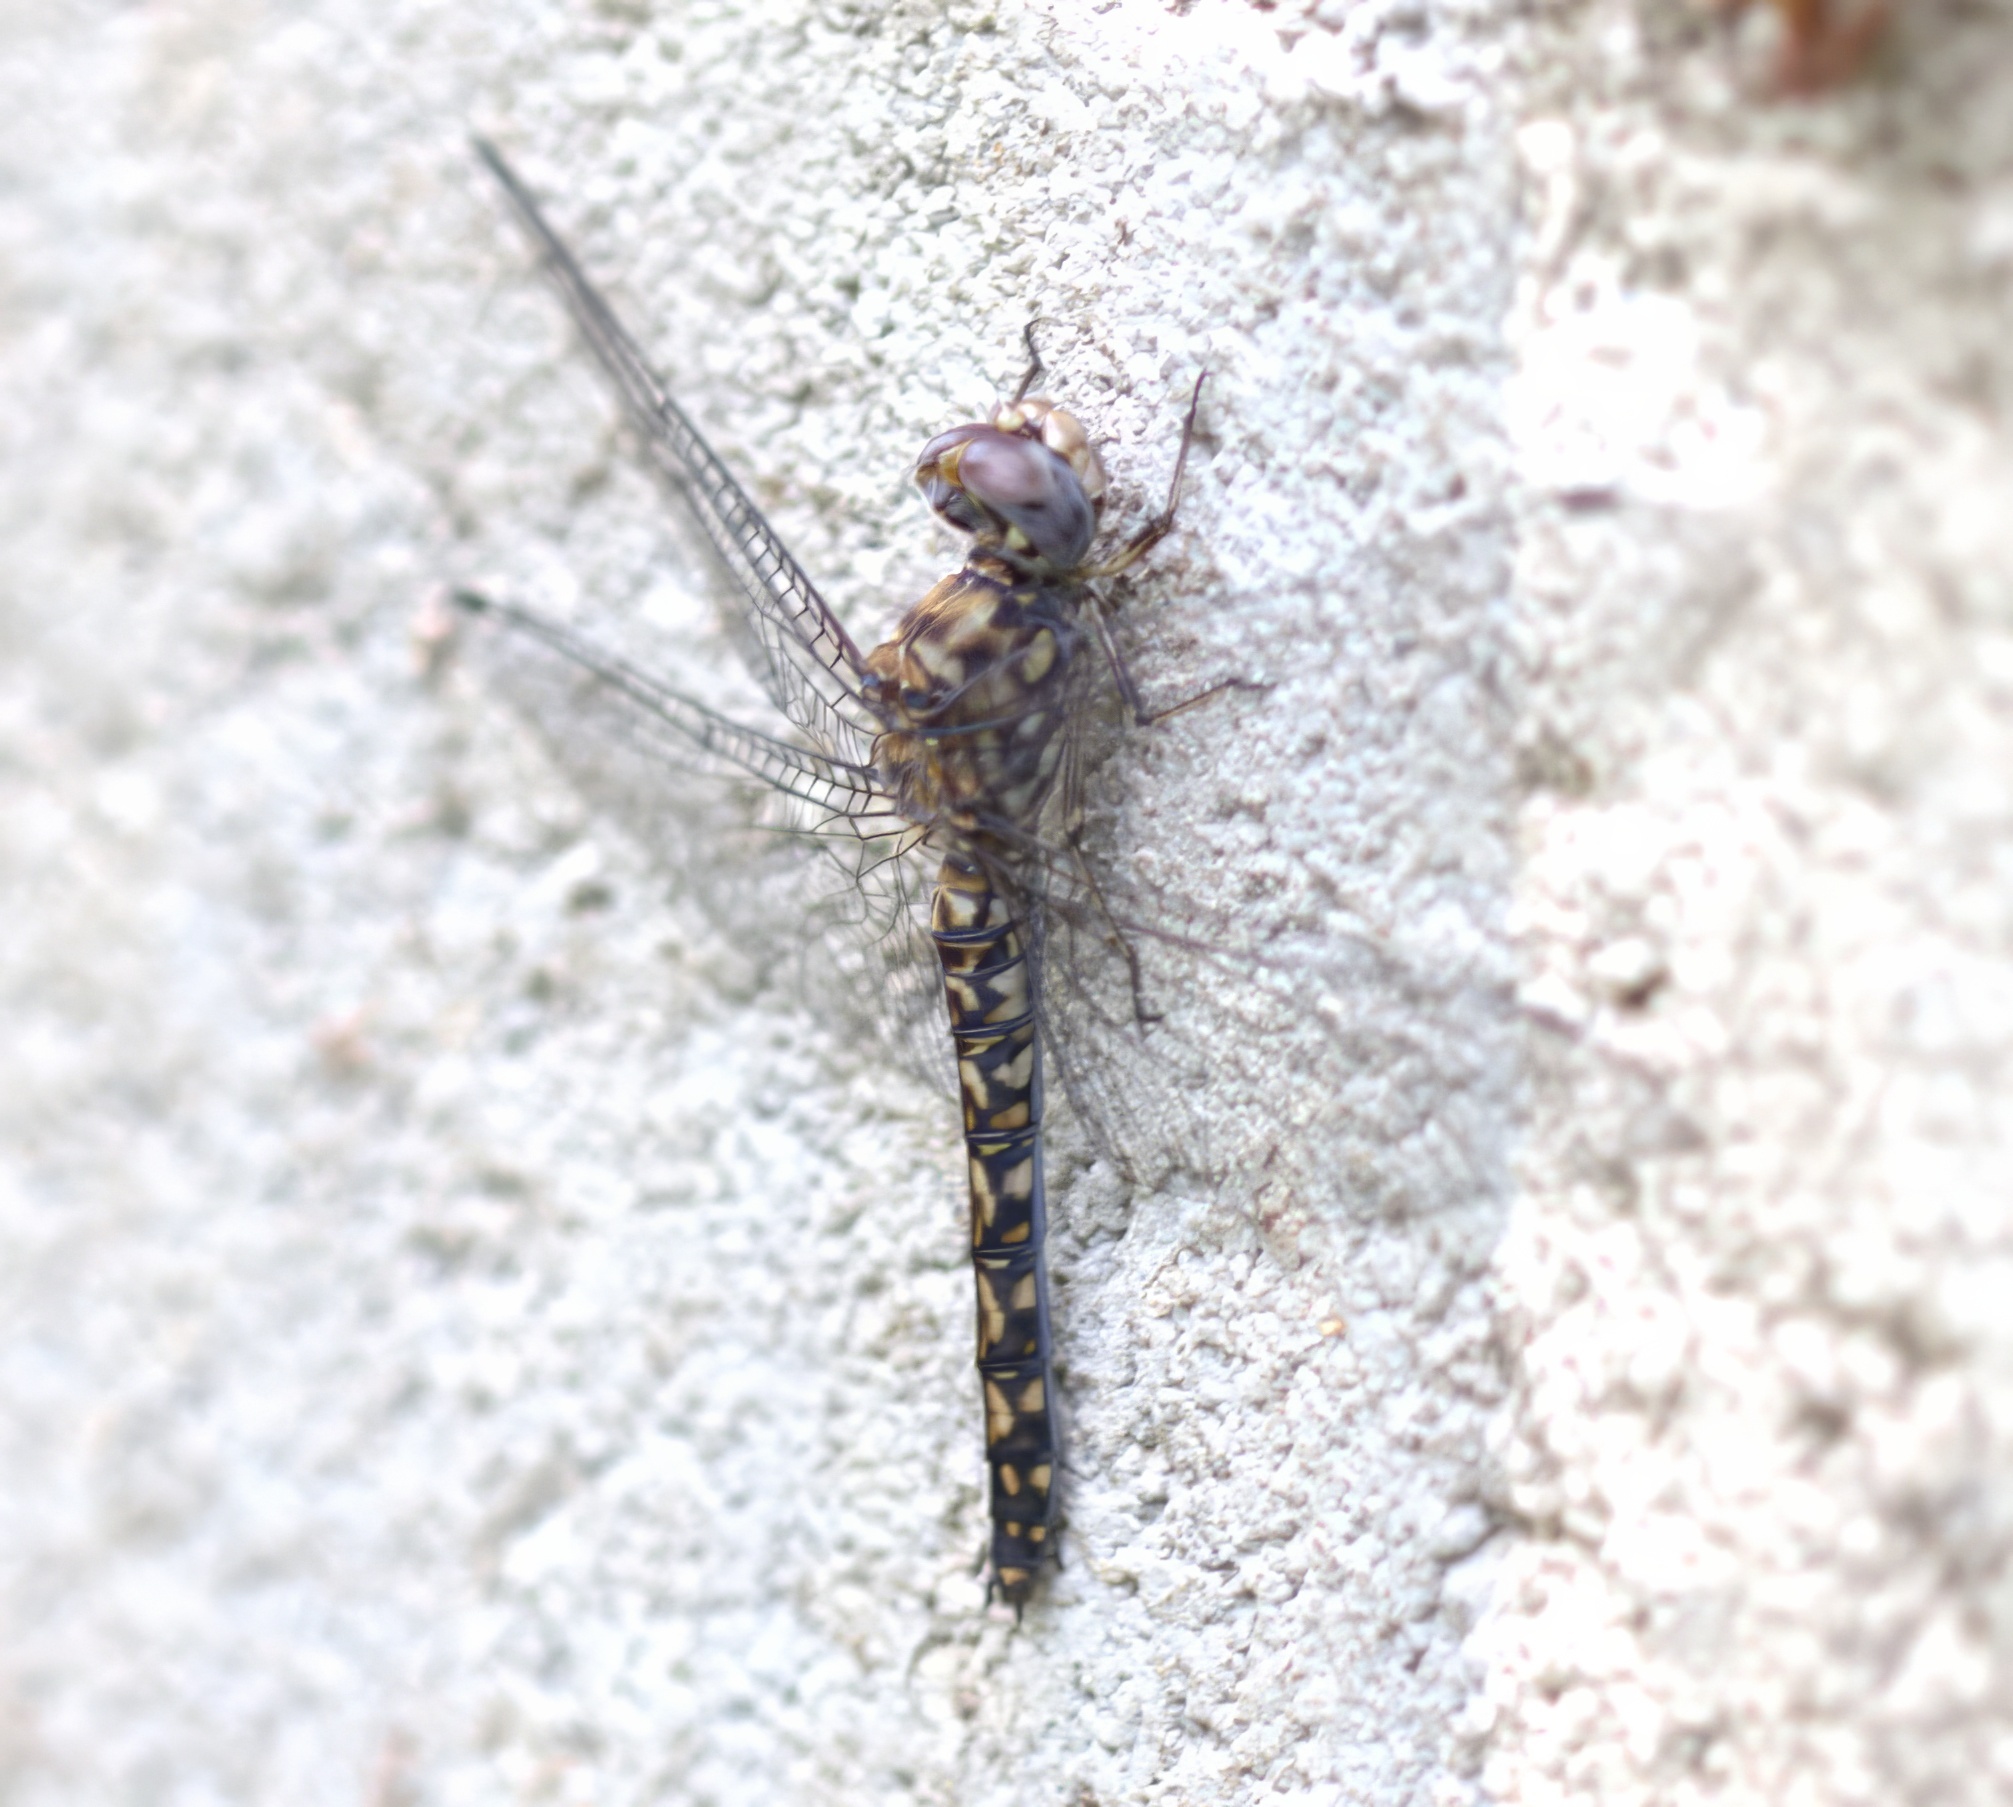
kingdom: Animalia
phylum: Arthropoda
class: Insecta
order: Odonata
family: Libellulidae
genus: Paltothemis
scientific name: Paltothemis lineatipes
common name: Red rock skimmer
